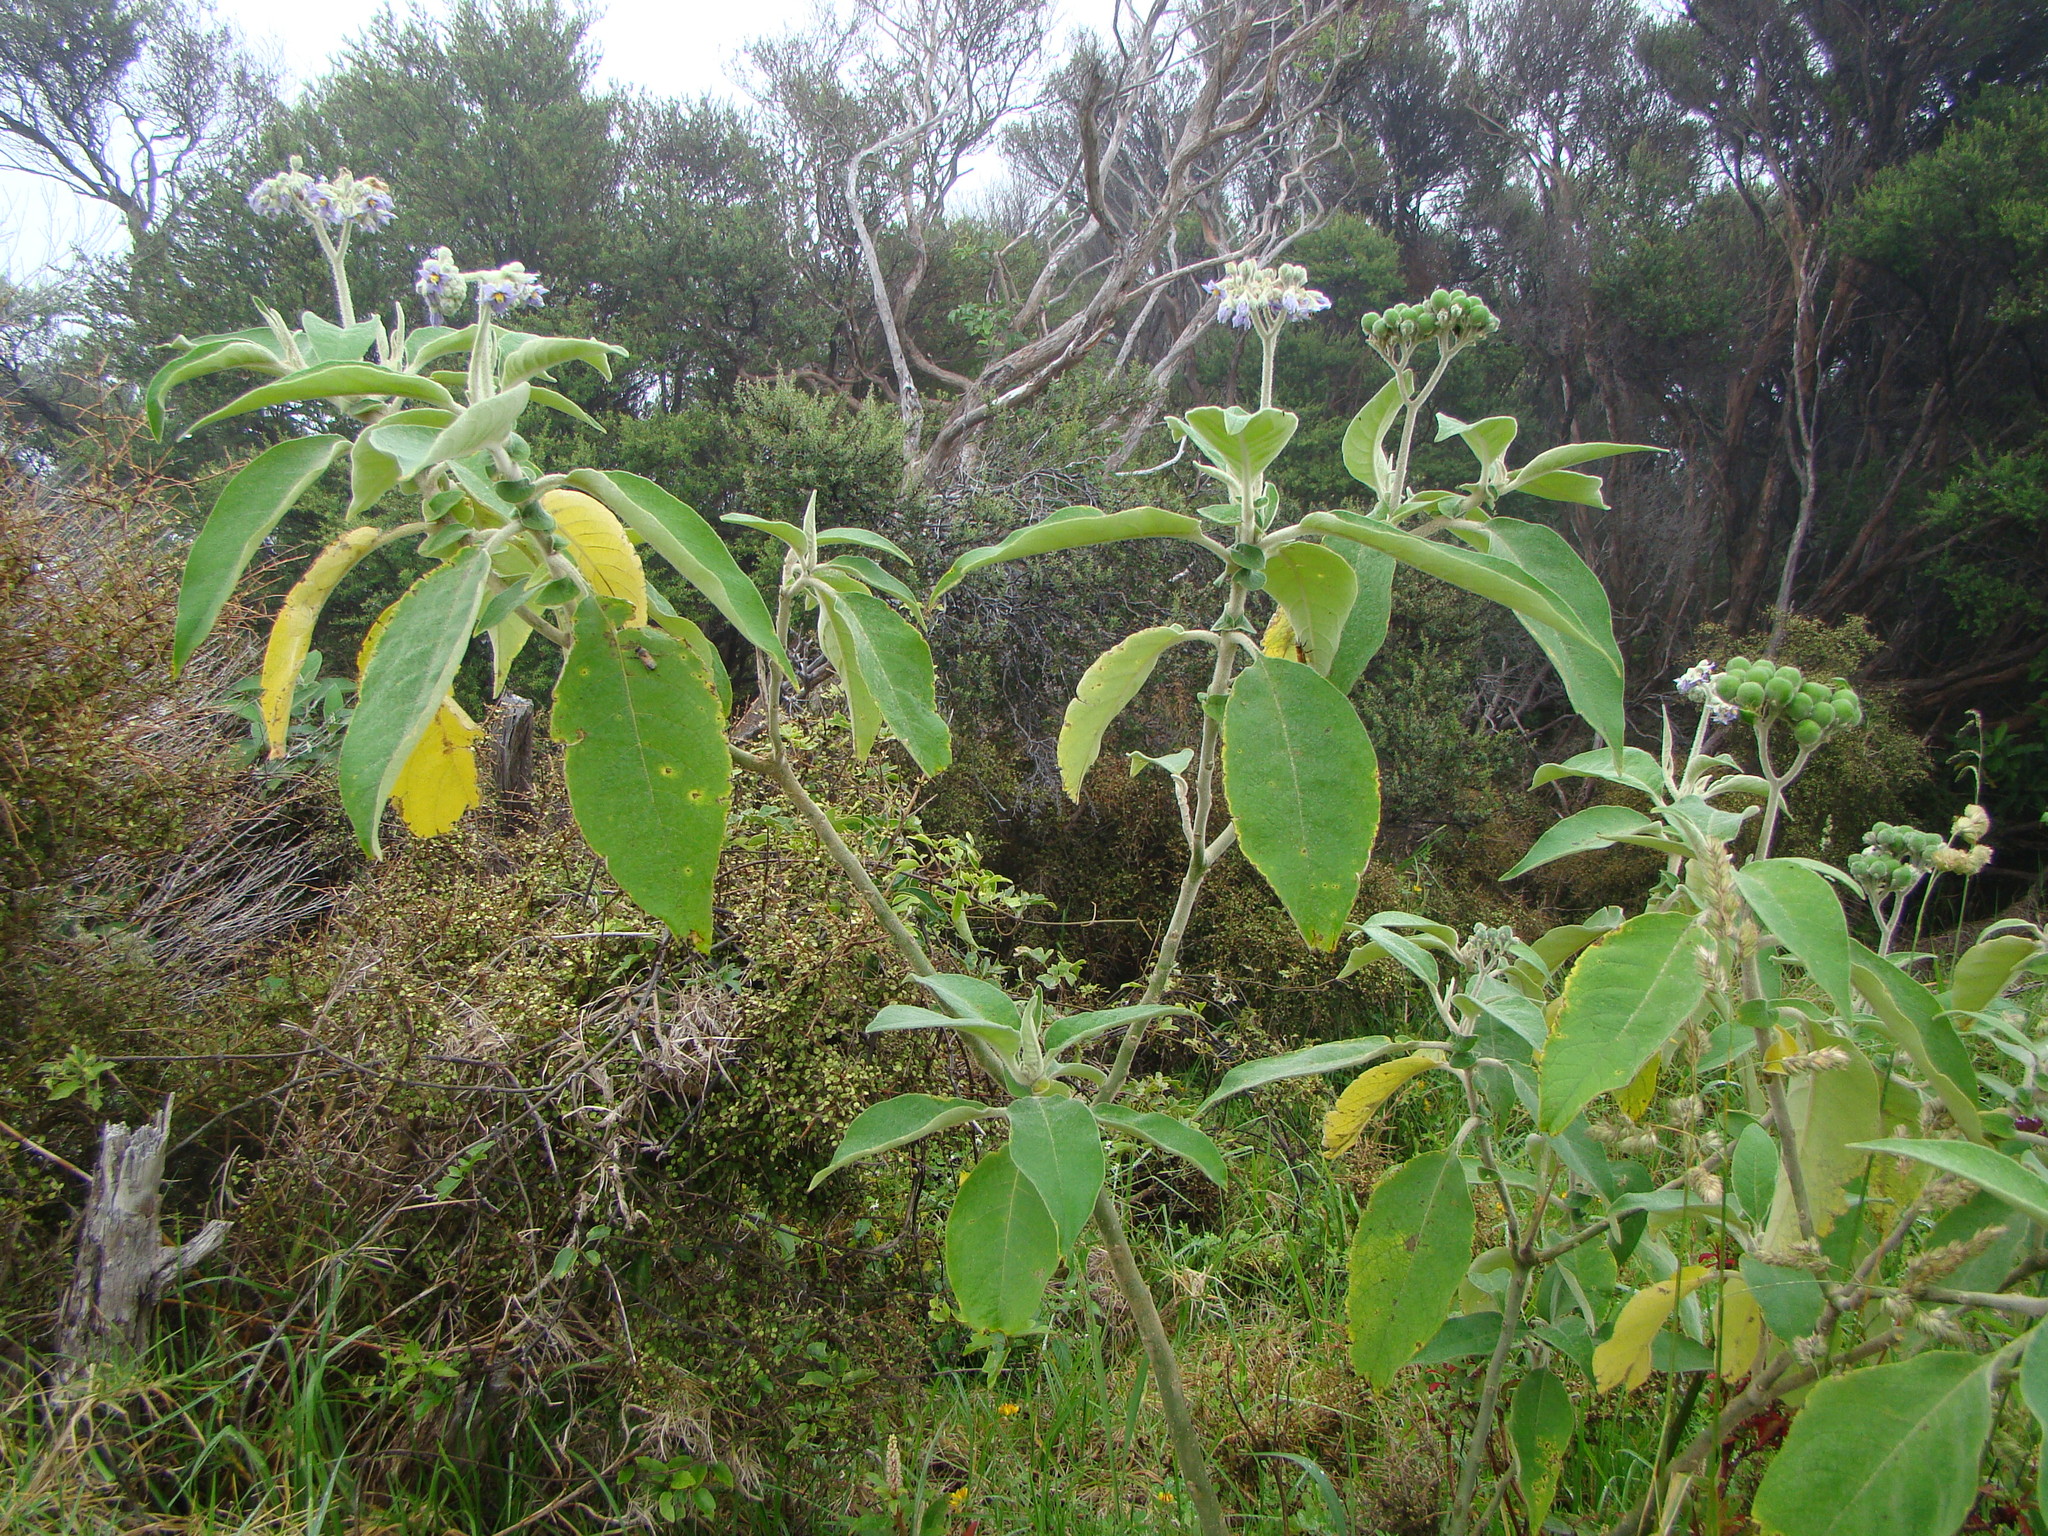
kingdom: Plantae
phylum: Tracheophyta
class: Magnoliopsida
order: Solanales
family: Solanaceae
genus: Solanum
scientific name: Solanum mauritianum
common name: Earleaf nightshade
